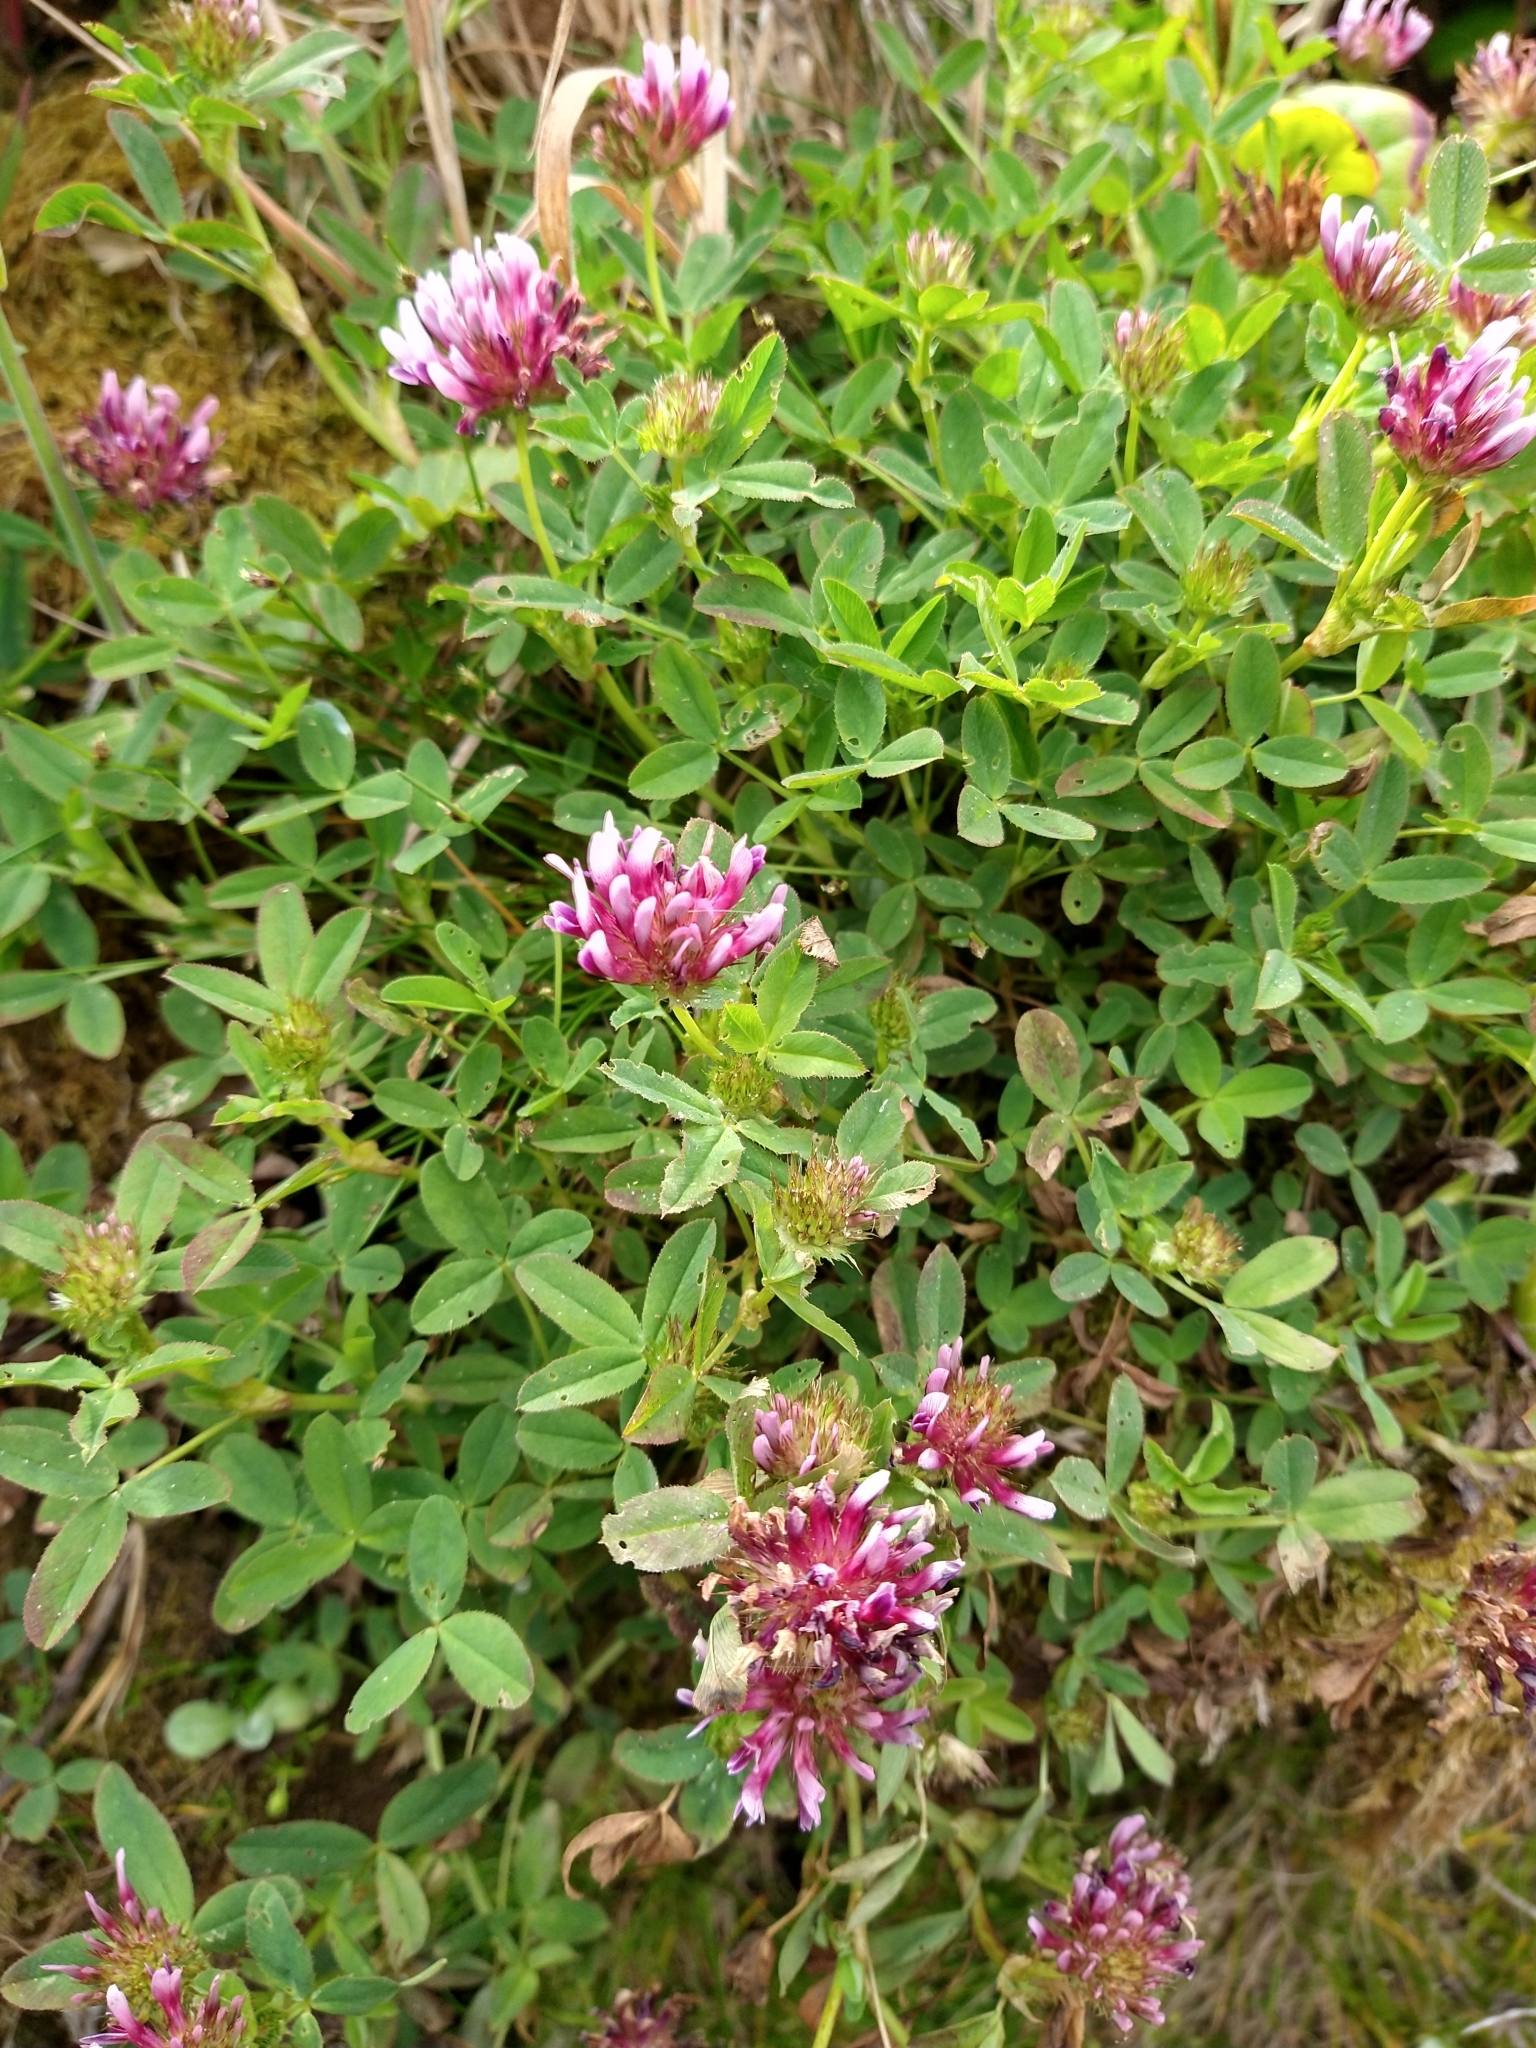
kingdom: Plantae
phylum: Tracheophyta
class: Magnoliopsida
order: Fabales
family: Fabaceae
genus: Trifolium
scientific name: Trifolium wormskioldii
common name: Springbank clover
